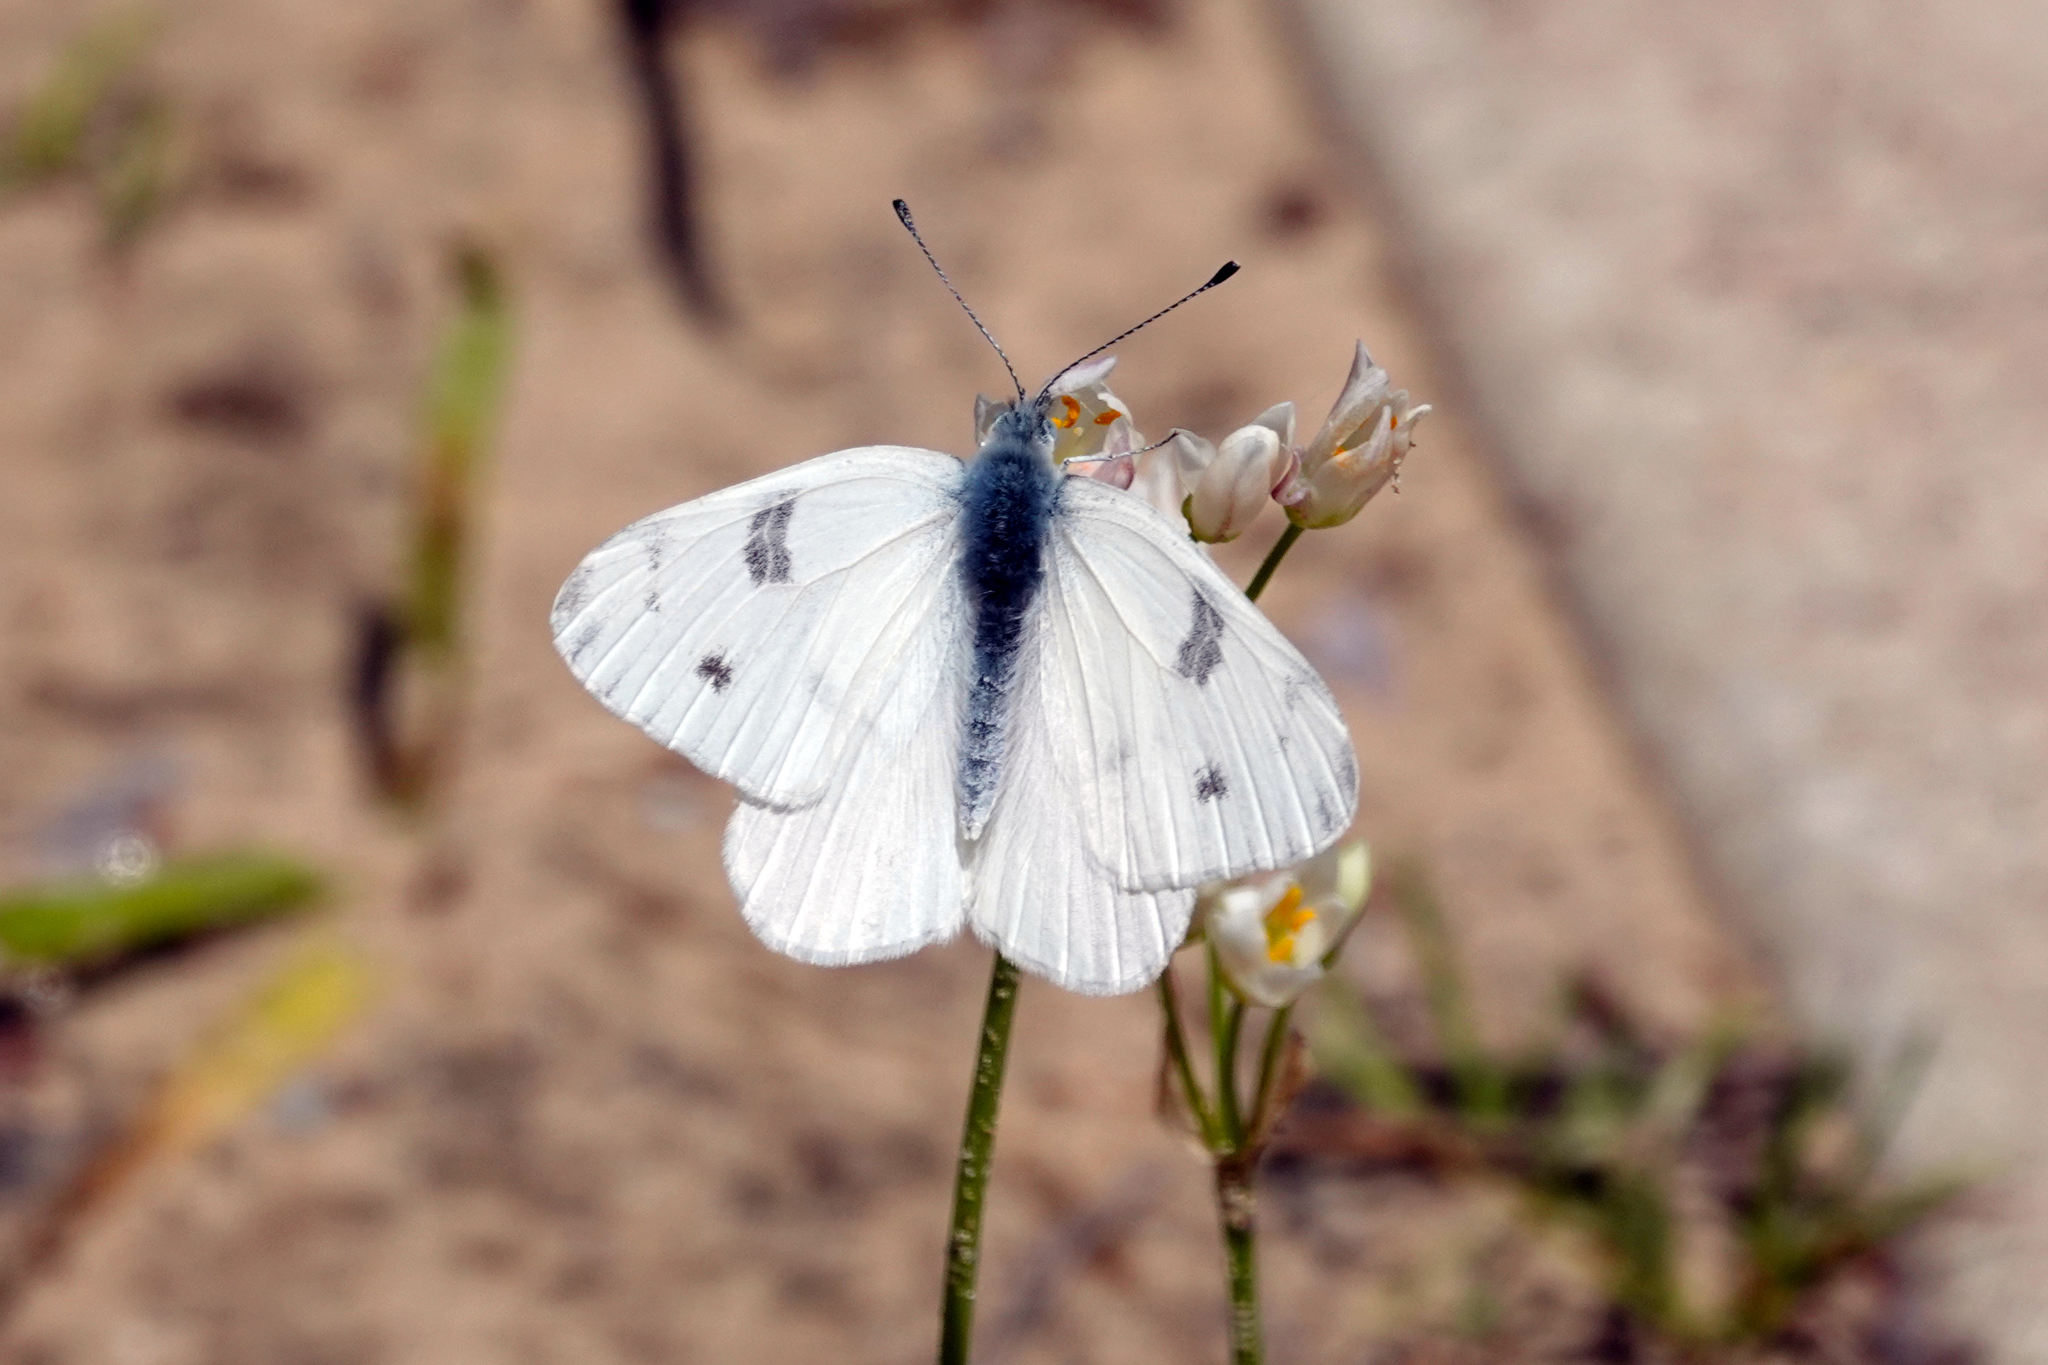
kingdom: Animalia
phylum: Arthropoda
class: Insecta
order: Lepidoptera
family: Pieridae
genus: Pontia
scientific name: Pontia protodice
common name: Checkered white
